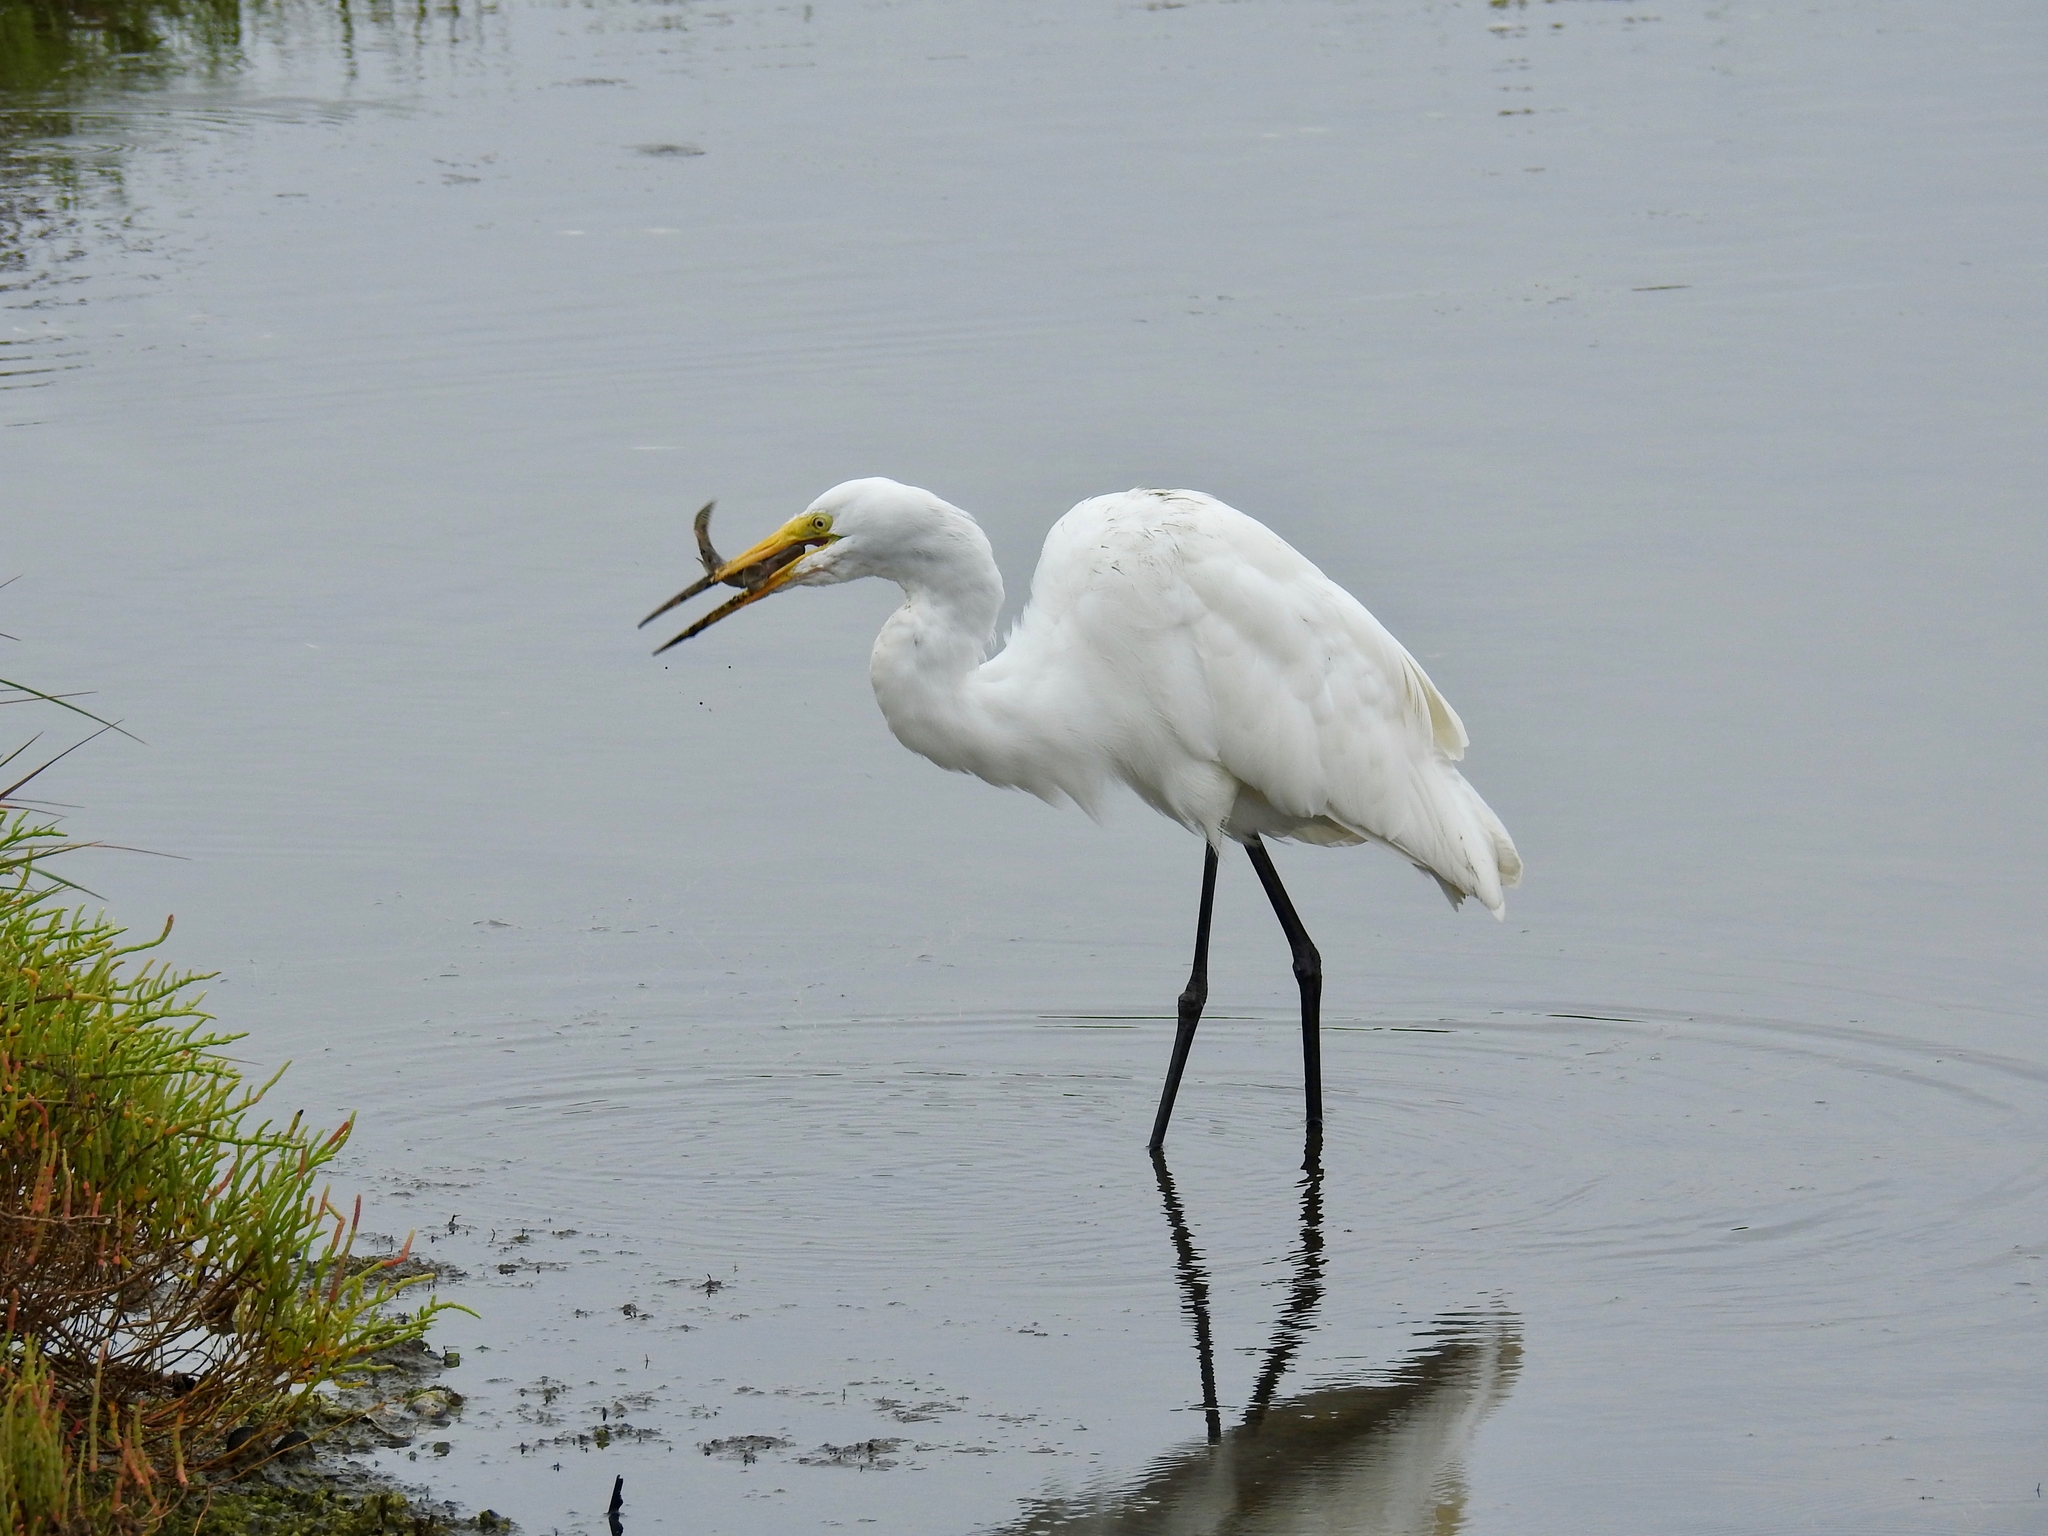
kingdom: Animalia
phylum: Chordata
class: Aves
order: Pelecaniformes
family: Ardeidae
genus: Ardea
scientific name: Ardea alba
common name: Great egret
